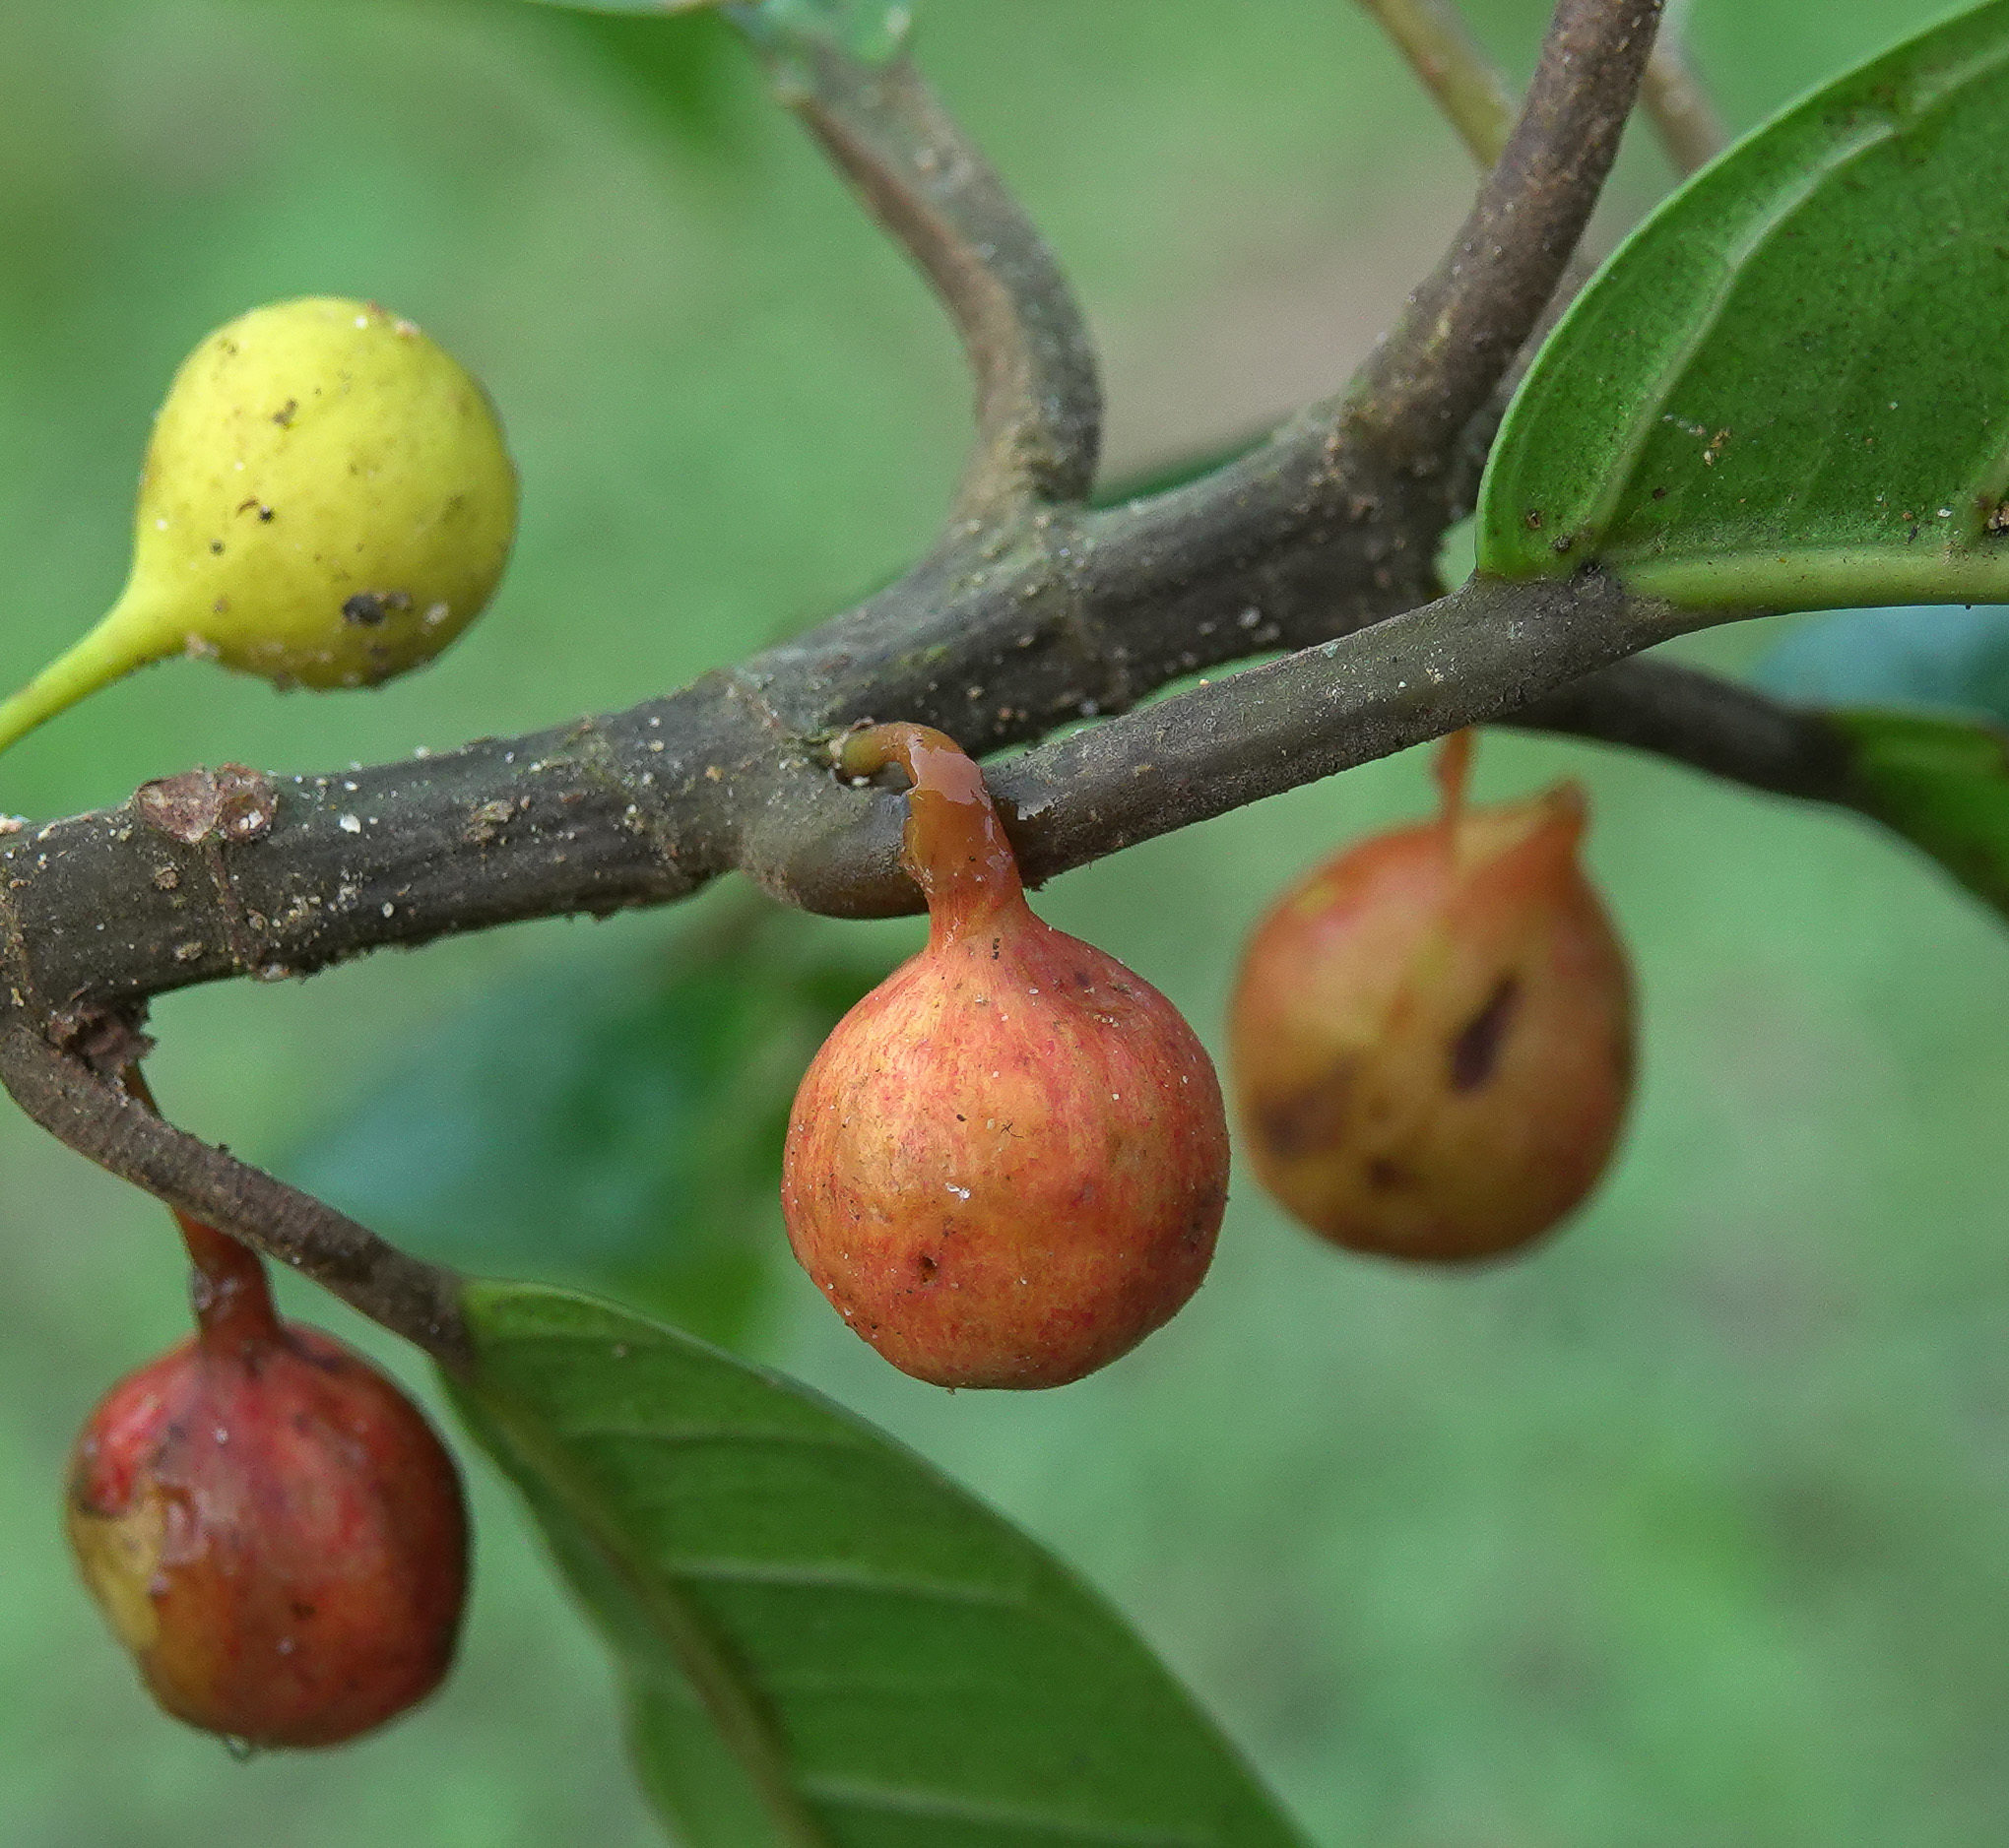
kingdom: Plantae
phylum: Tracheophyta
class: Magnoliopsida
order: Rosales
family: Moraceae
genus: Ficus
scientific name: Ficus nervosa
